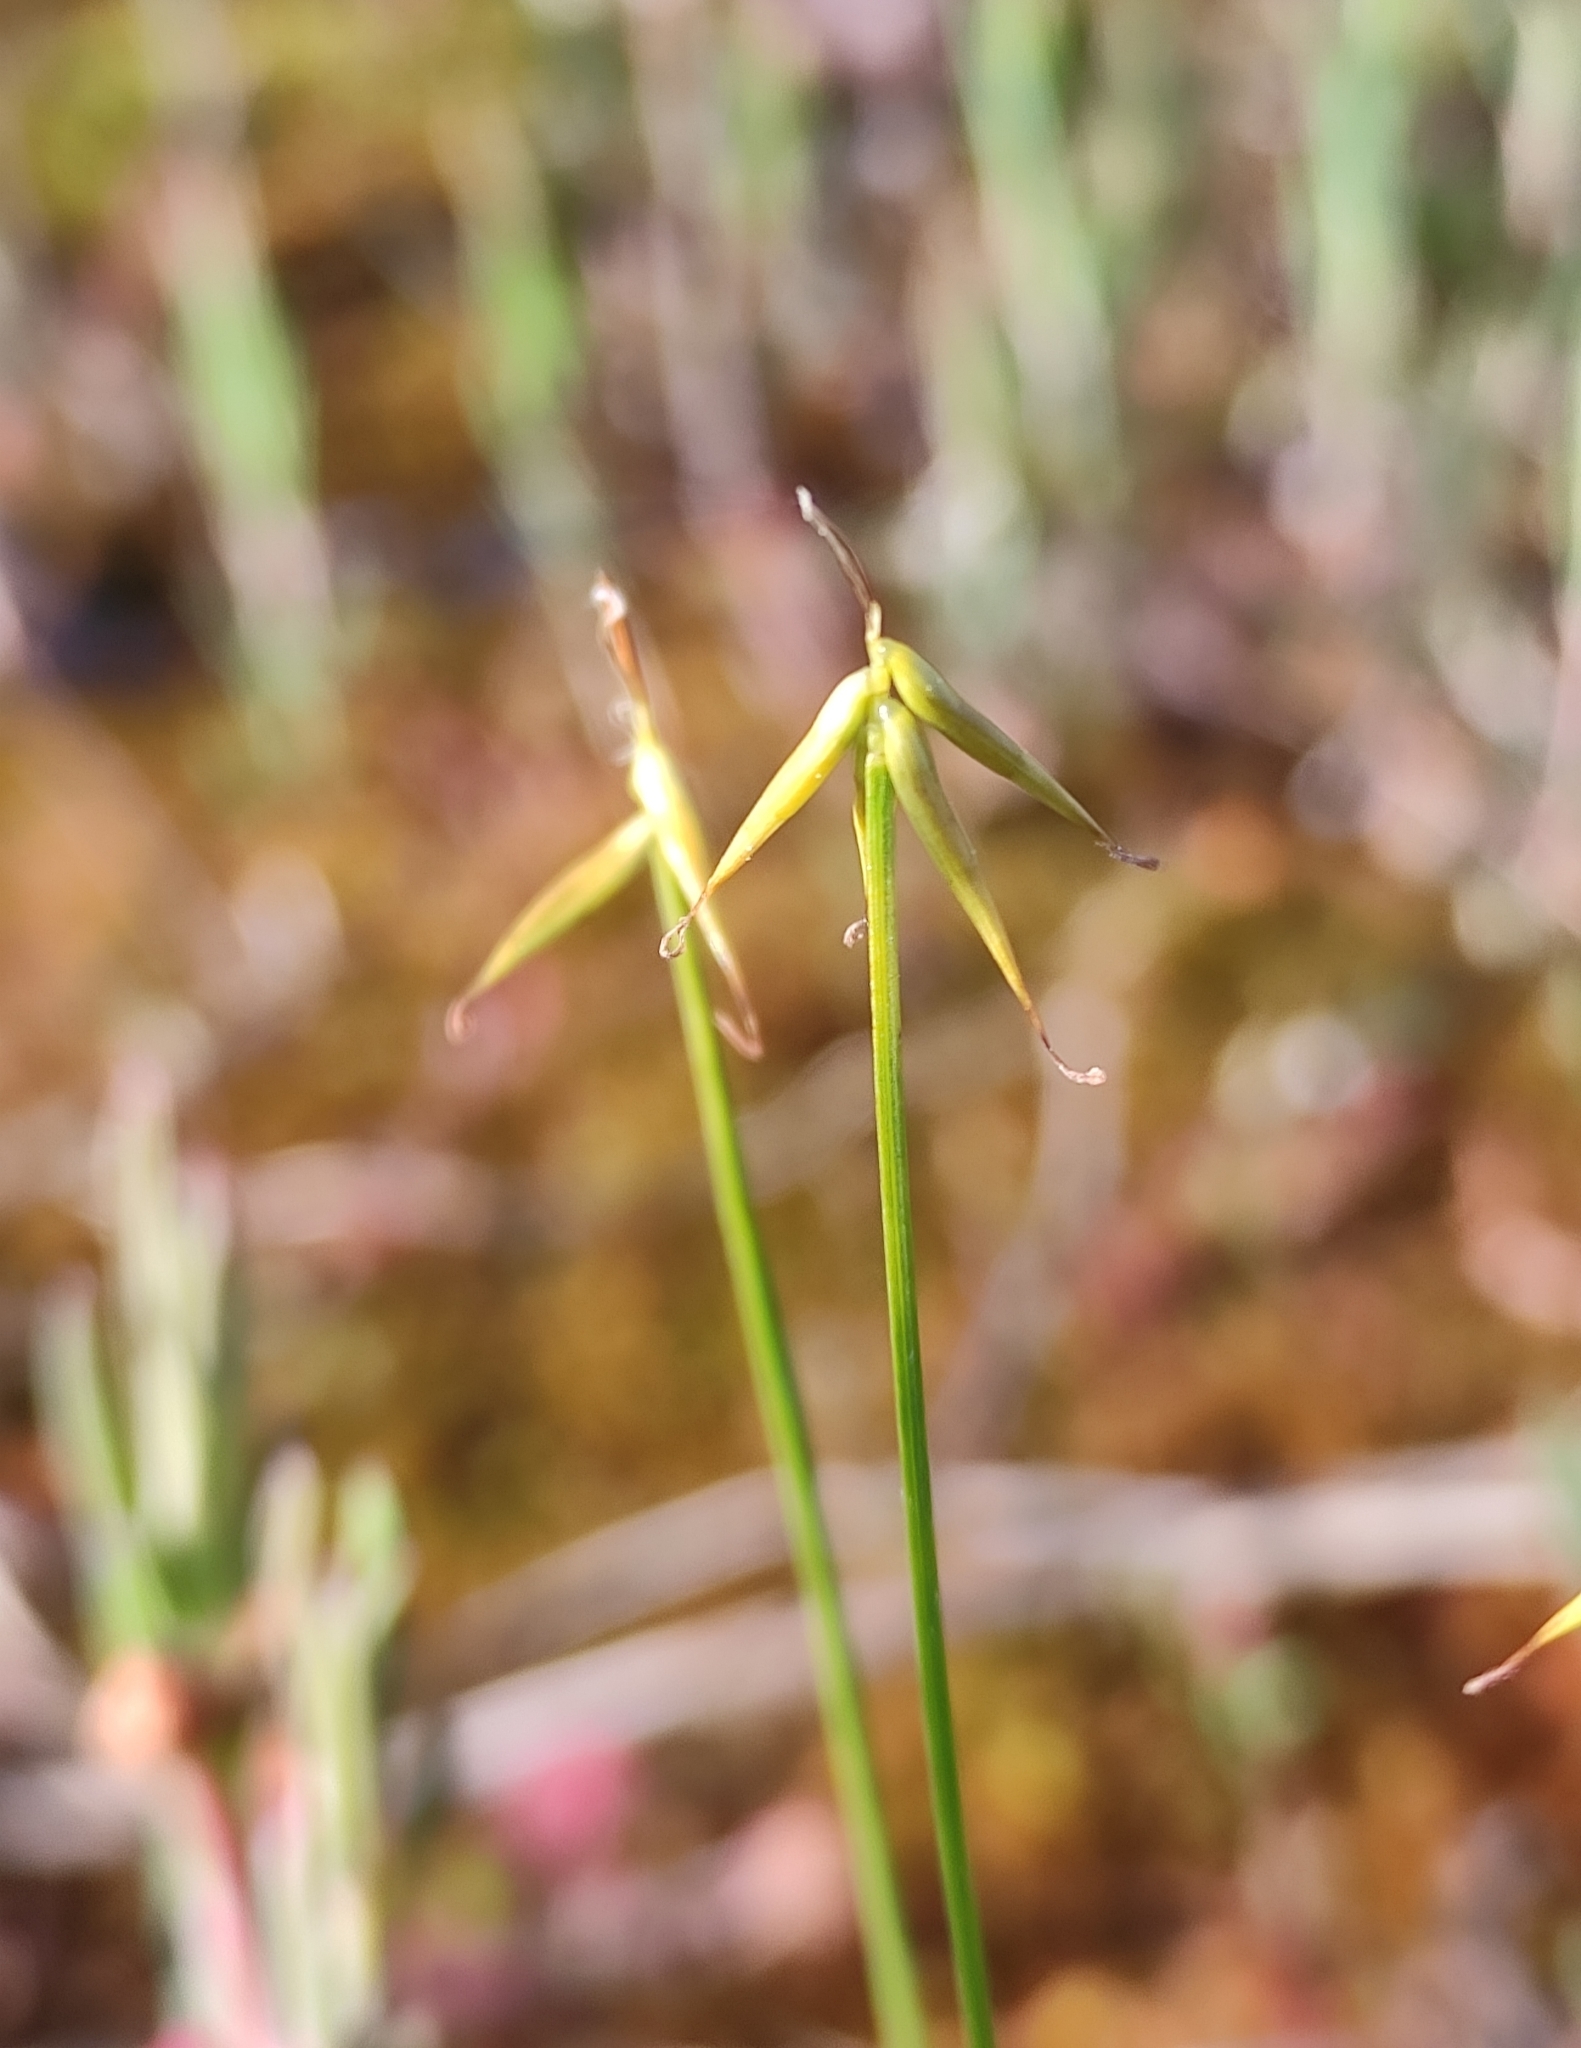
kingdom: Plantae
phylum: Tracheophyta
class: Liliopsida
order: Poales
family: Cyperaceae
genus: Carex
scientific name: Carex pauciflora
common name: Few-flowered sedge
